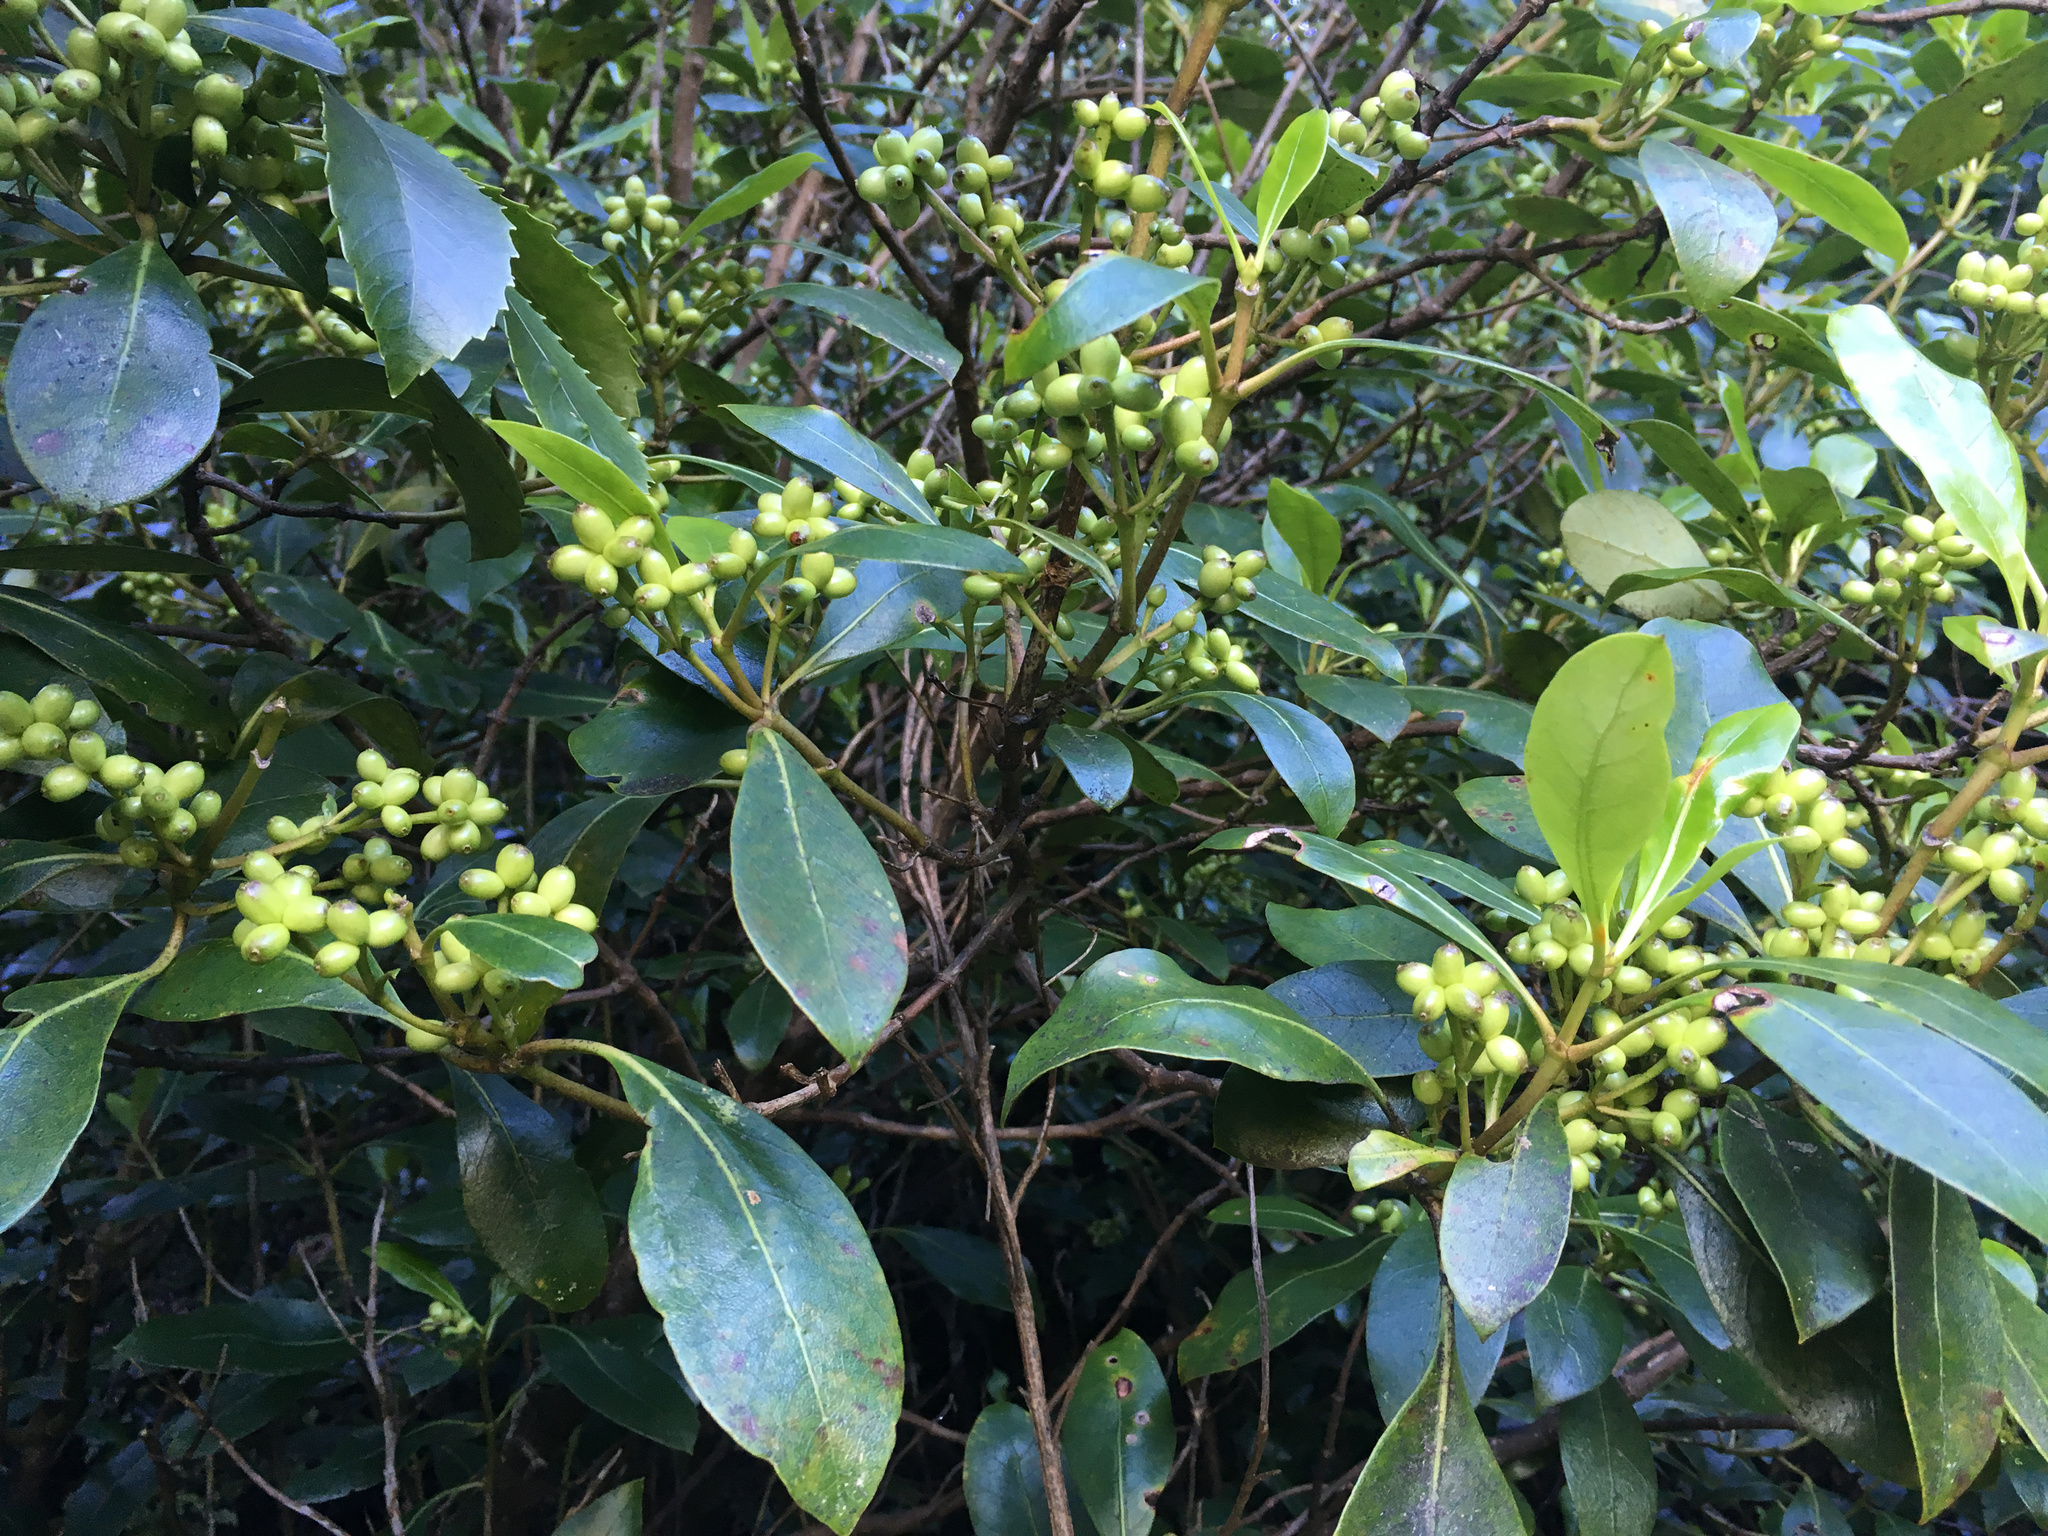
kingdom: Plantae
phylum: Tracheophyta
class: Magnoliopsida
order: Gentianales
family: Rubiaceae
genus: Coprosma
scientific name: Coprosma lucida
